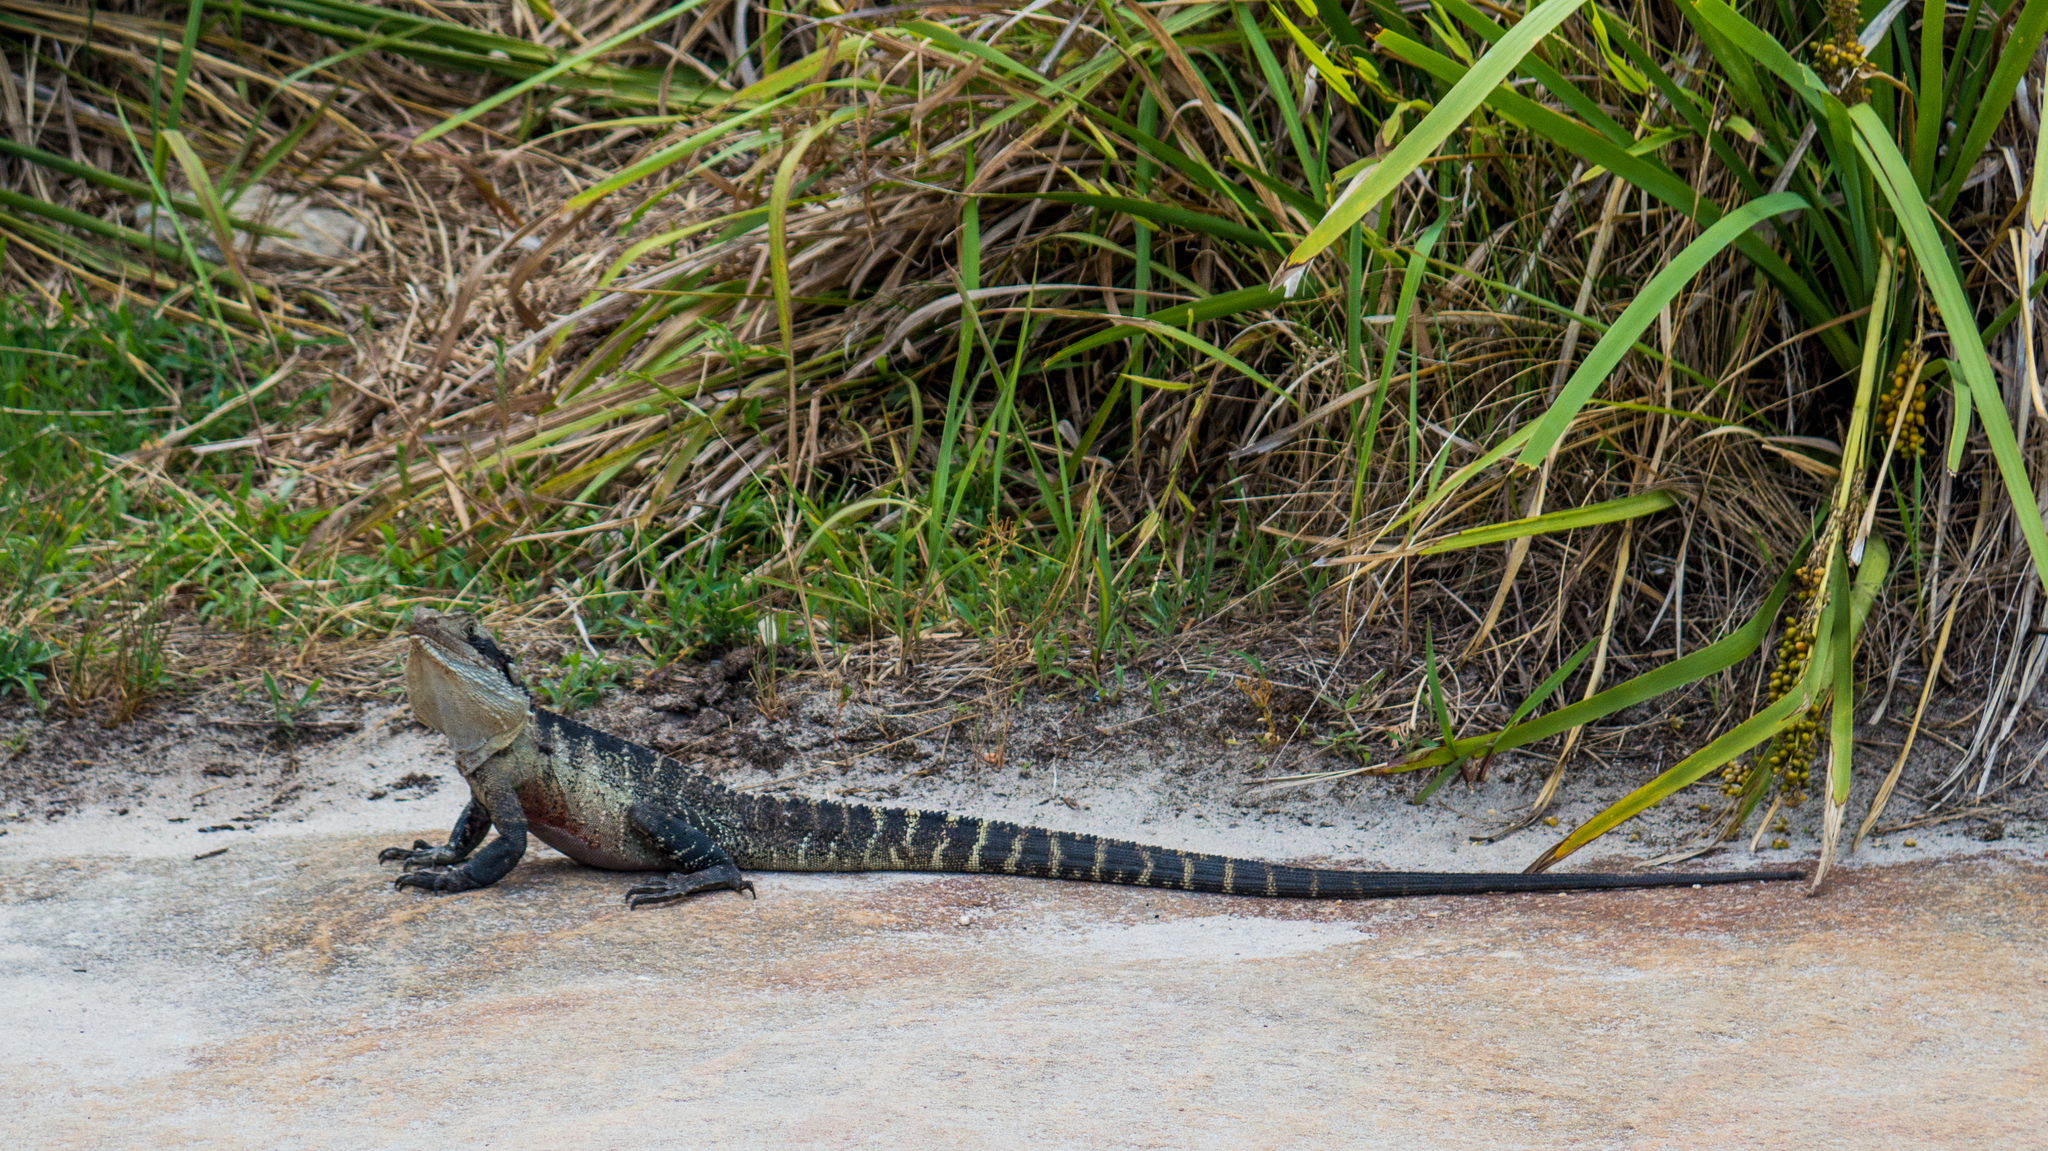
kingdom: Animalia
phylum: Chordata
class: Squamata
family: Agamidae
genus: Intellagama
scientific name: Intellagama lesueurii
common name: Eastern water dragon
